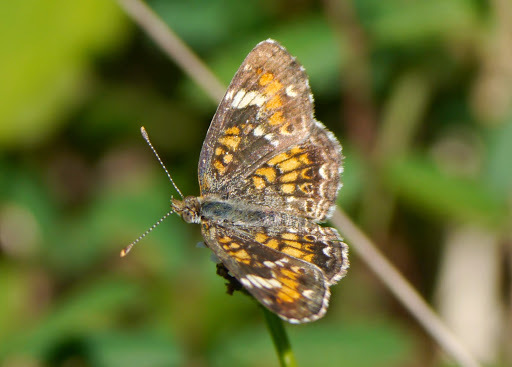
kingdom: Animalia
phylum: Arthropoda
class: Insecta
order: Lepidoptera
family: Nymphalidae
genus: Phyciodes
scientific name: Phyciodes phaon
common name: Phaon crescent
